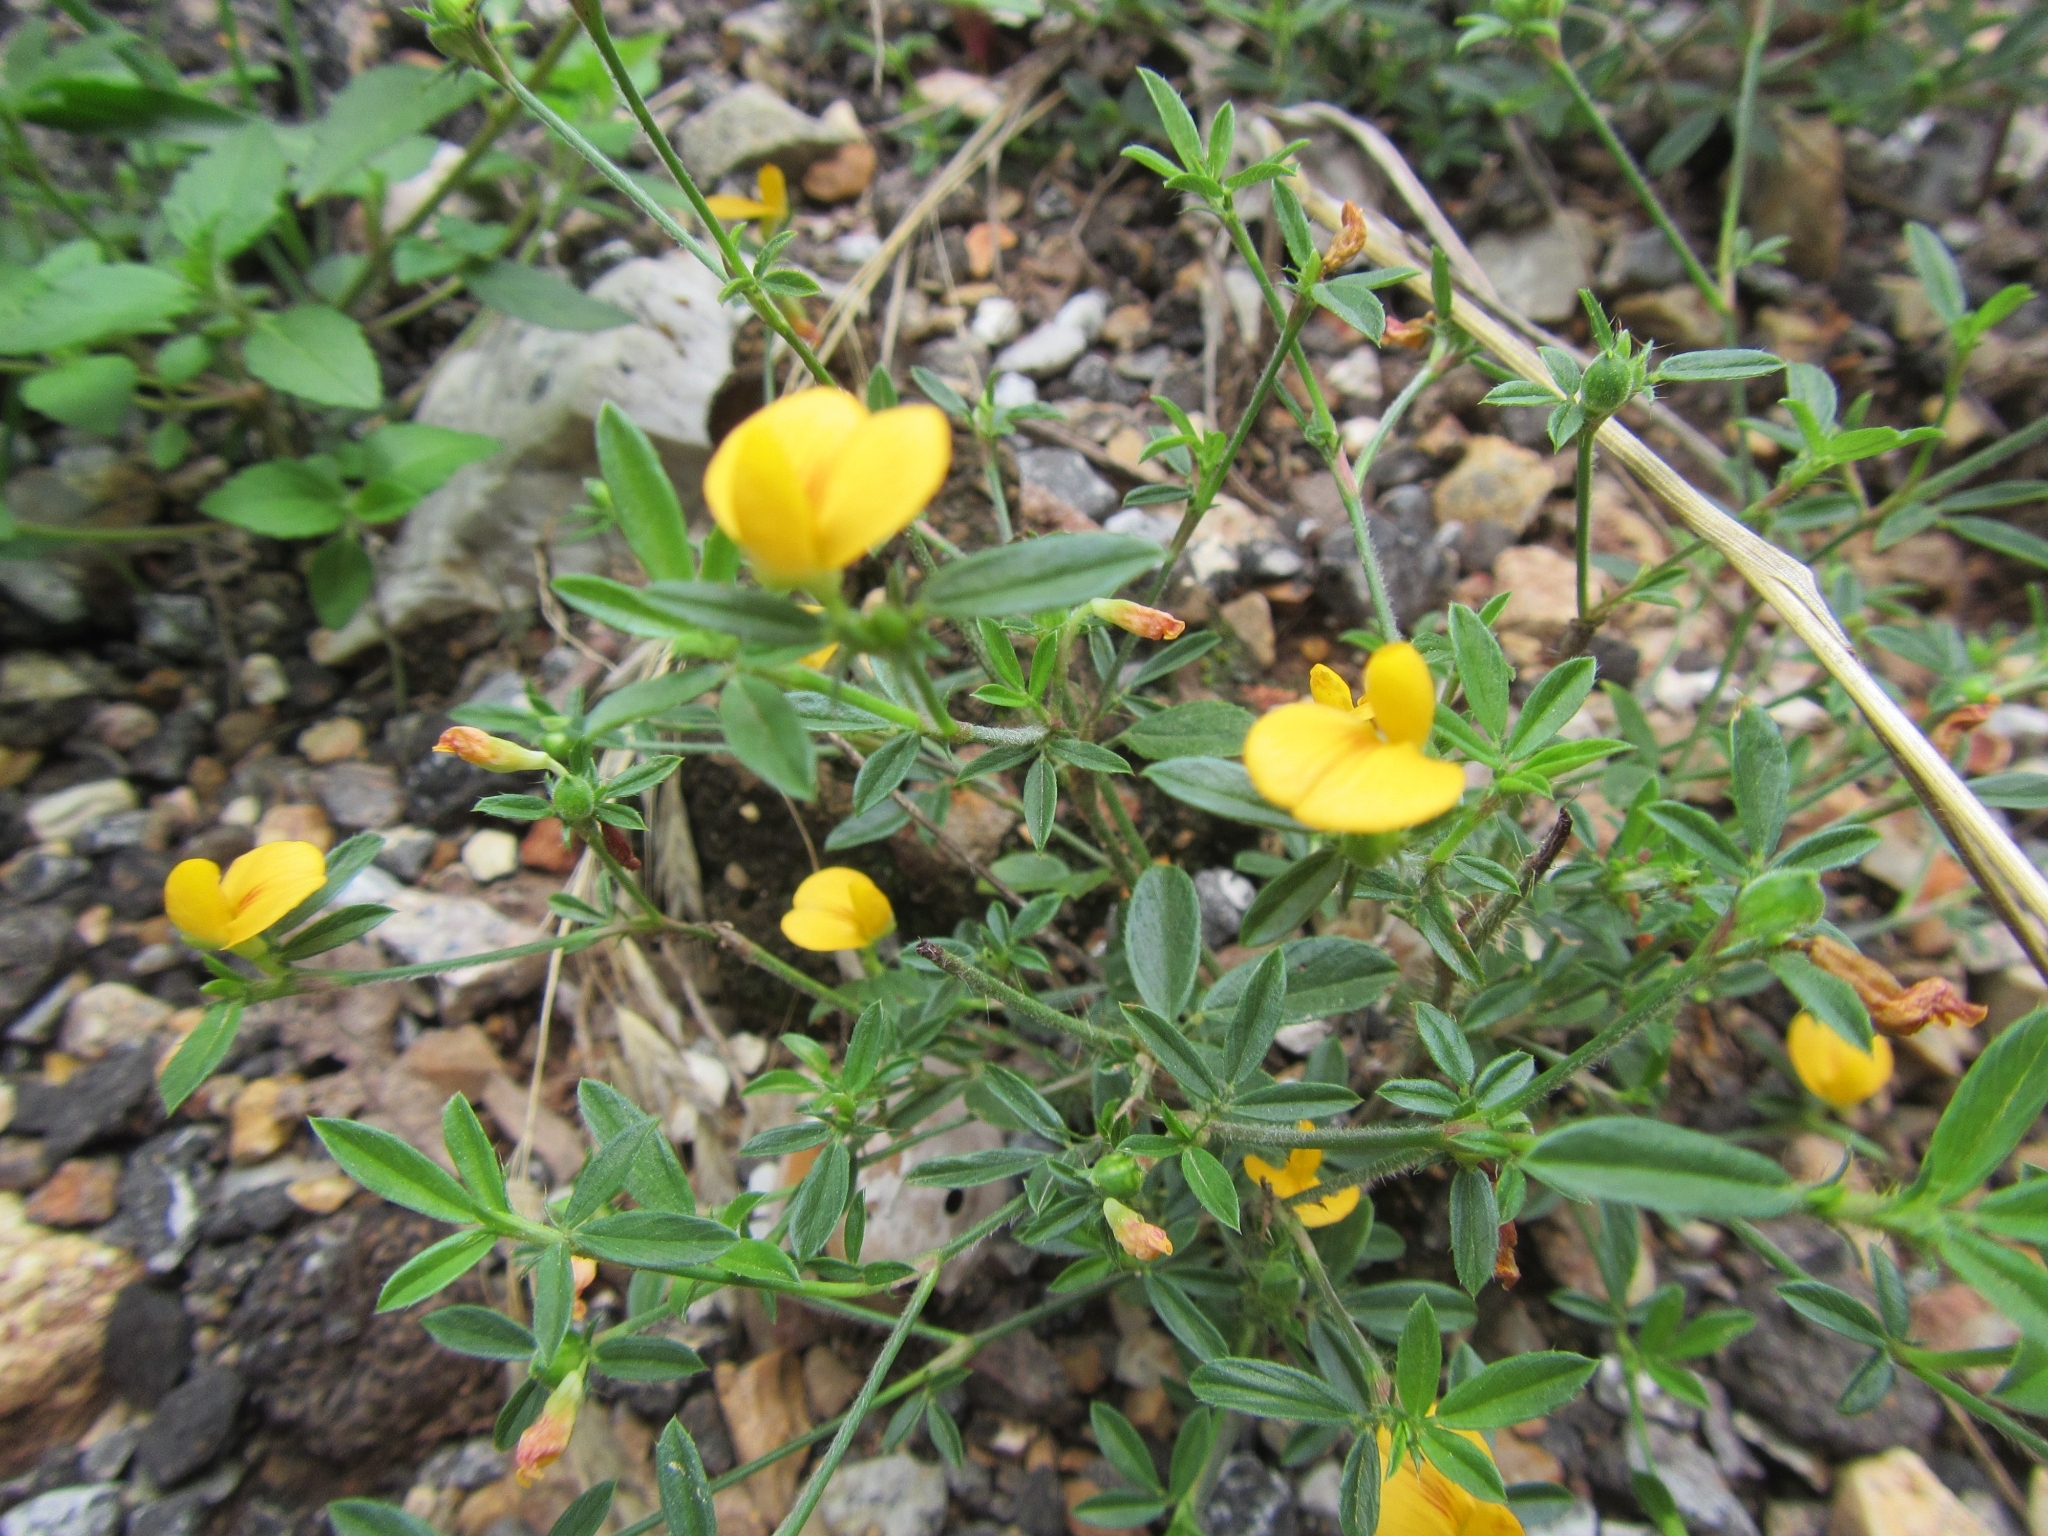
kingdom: Plantae
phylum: Tracheophyta
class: Magnoliopsida
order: Fabales
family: Fabaceae
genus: Stylosanthes
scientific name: Stylosanthes biflora
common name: Two-flower pencil-flower
